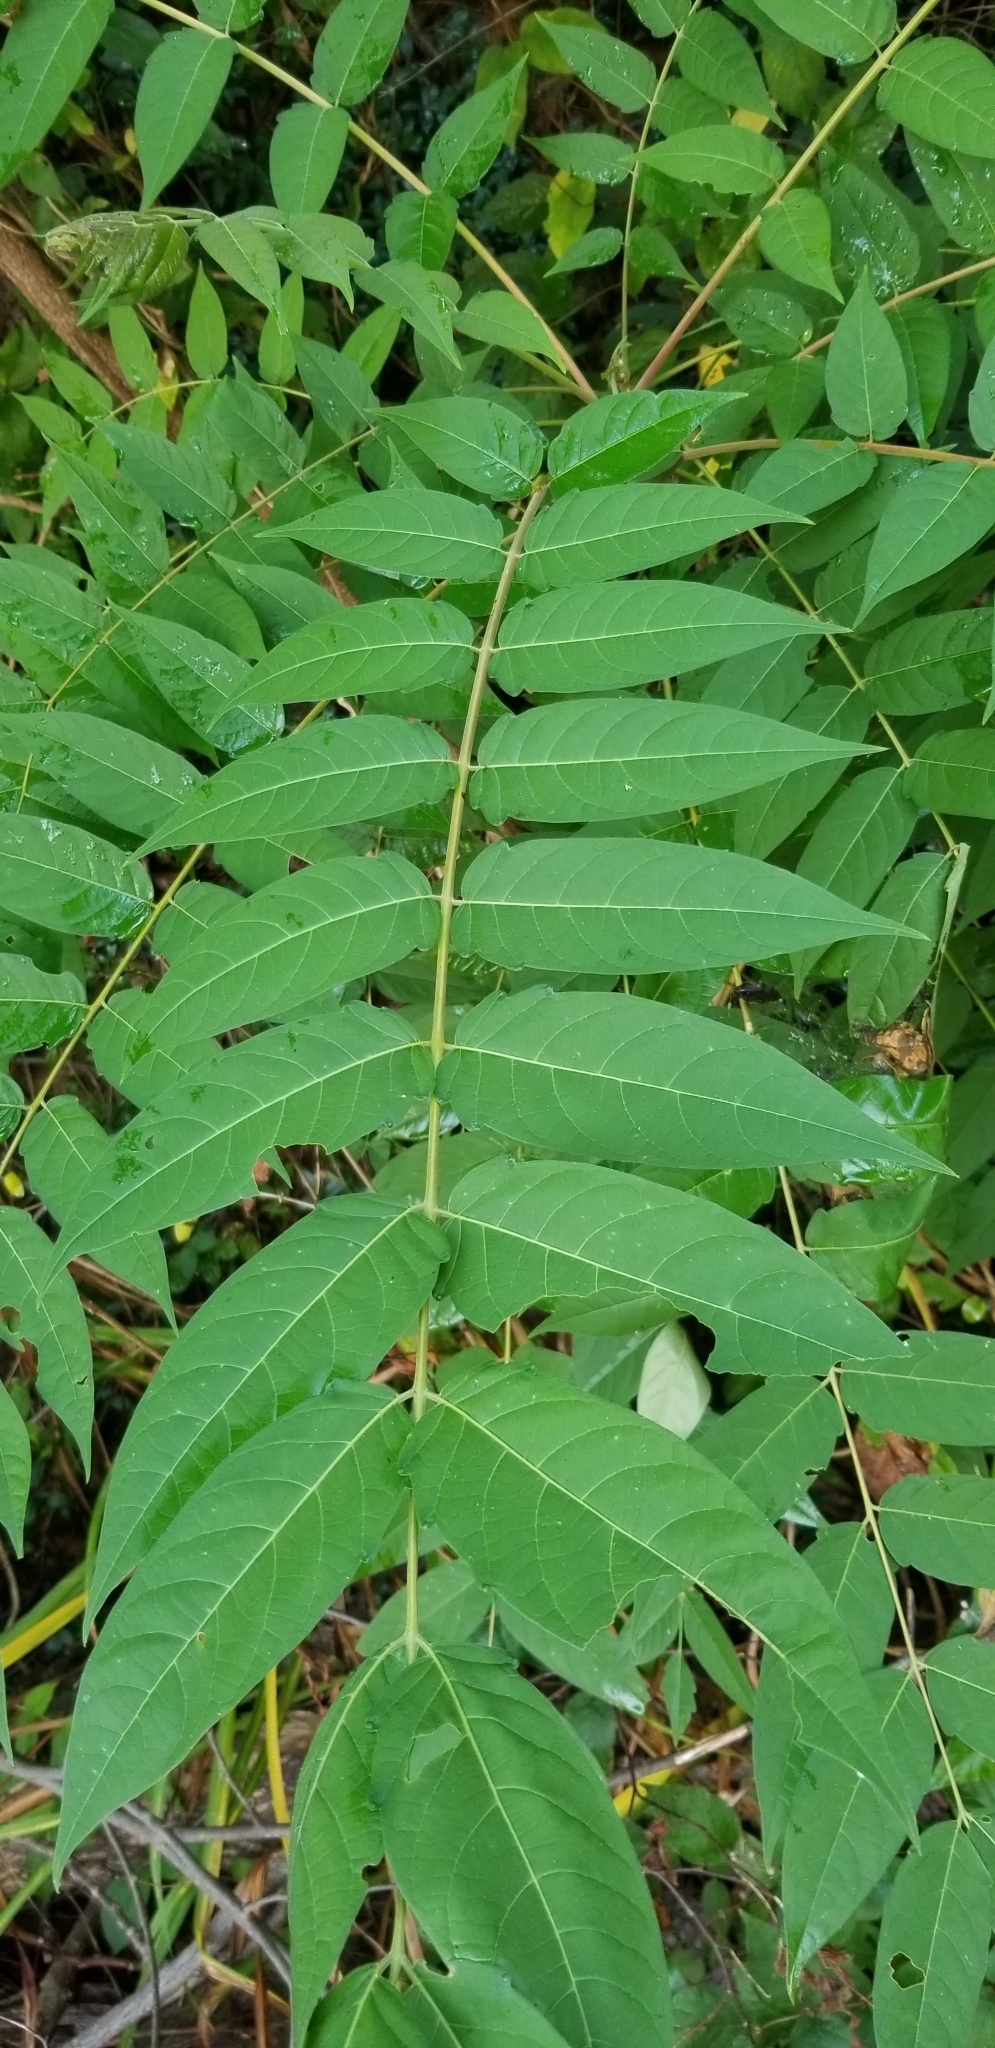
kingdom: Plantae
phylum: Tracheophyta
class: Magnoliopsida
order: Sapindales
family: Simaroubaceae
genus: Ailanthus
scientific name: Ailanthus altissima
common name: Tree-of-heaven
